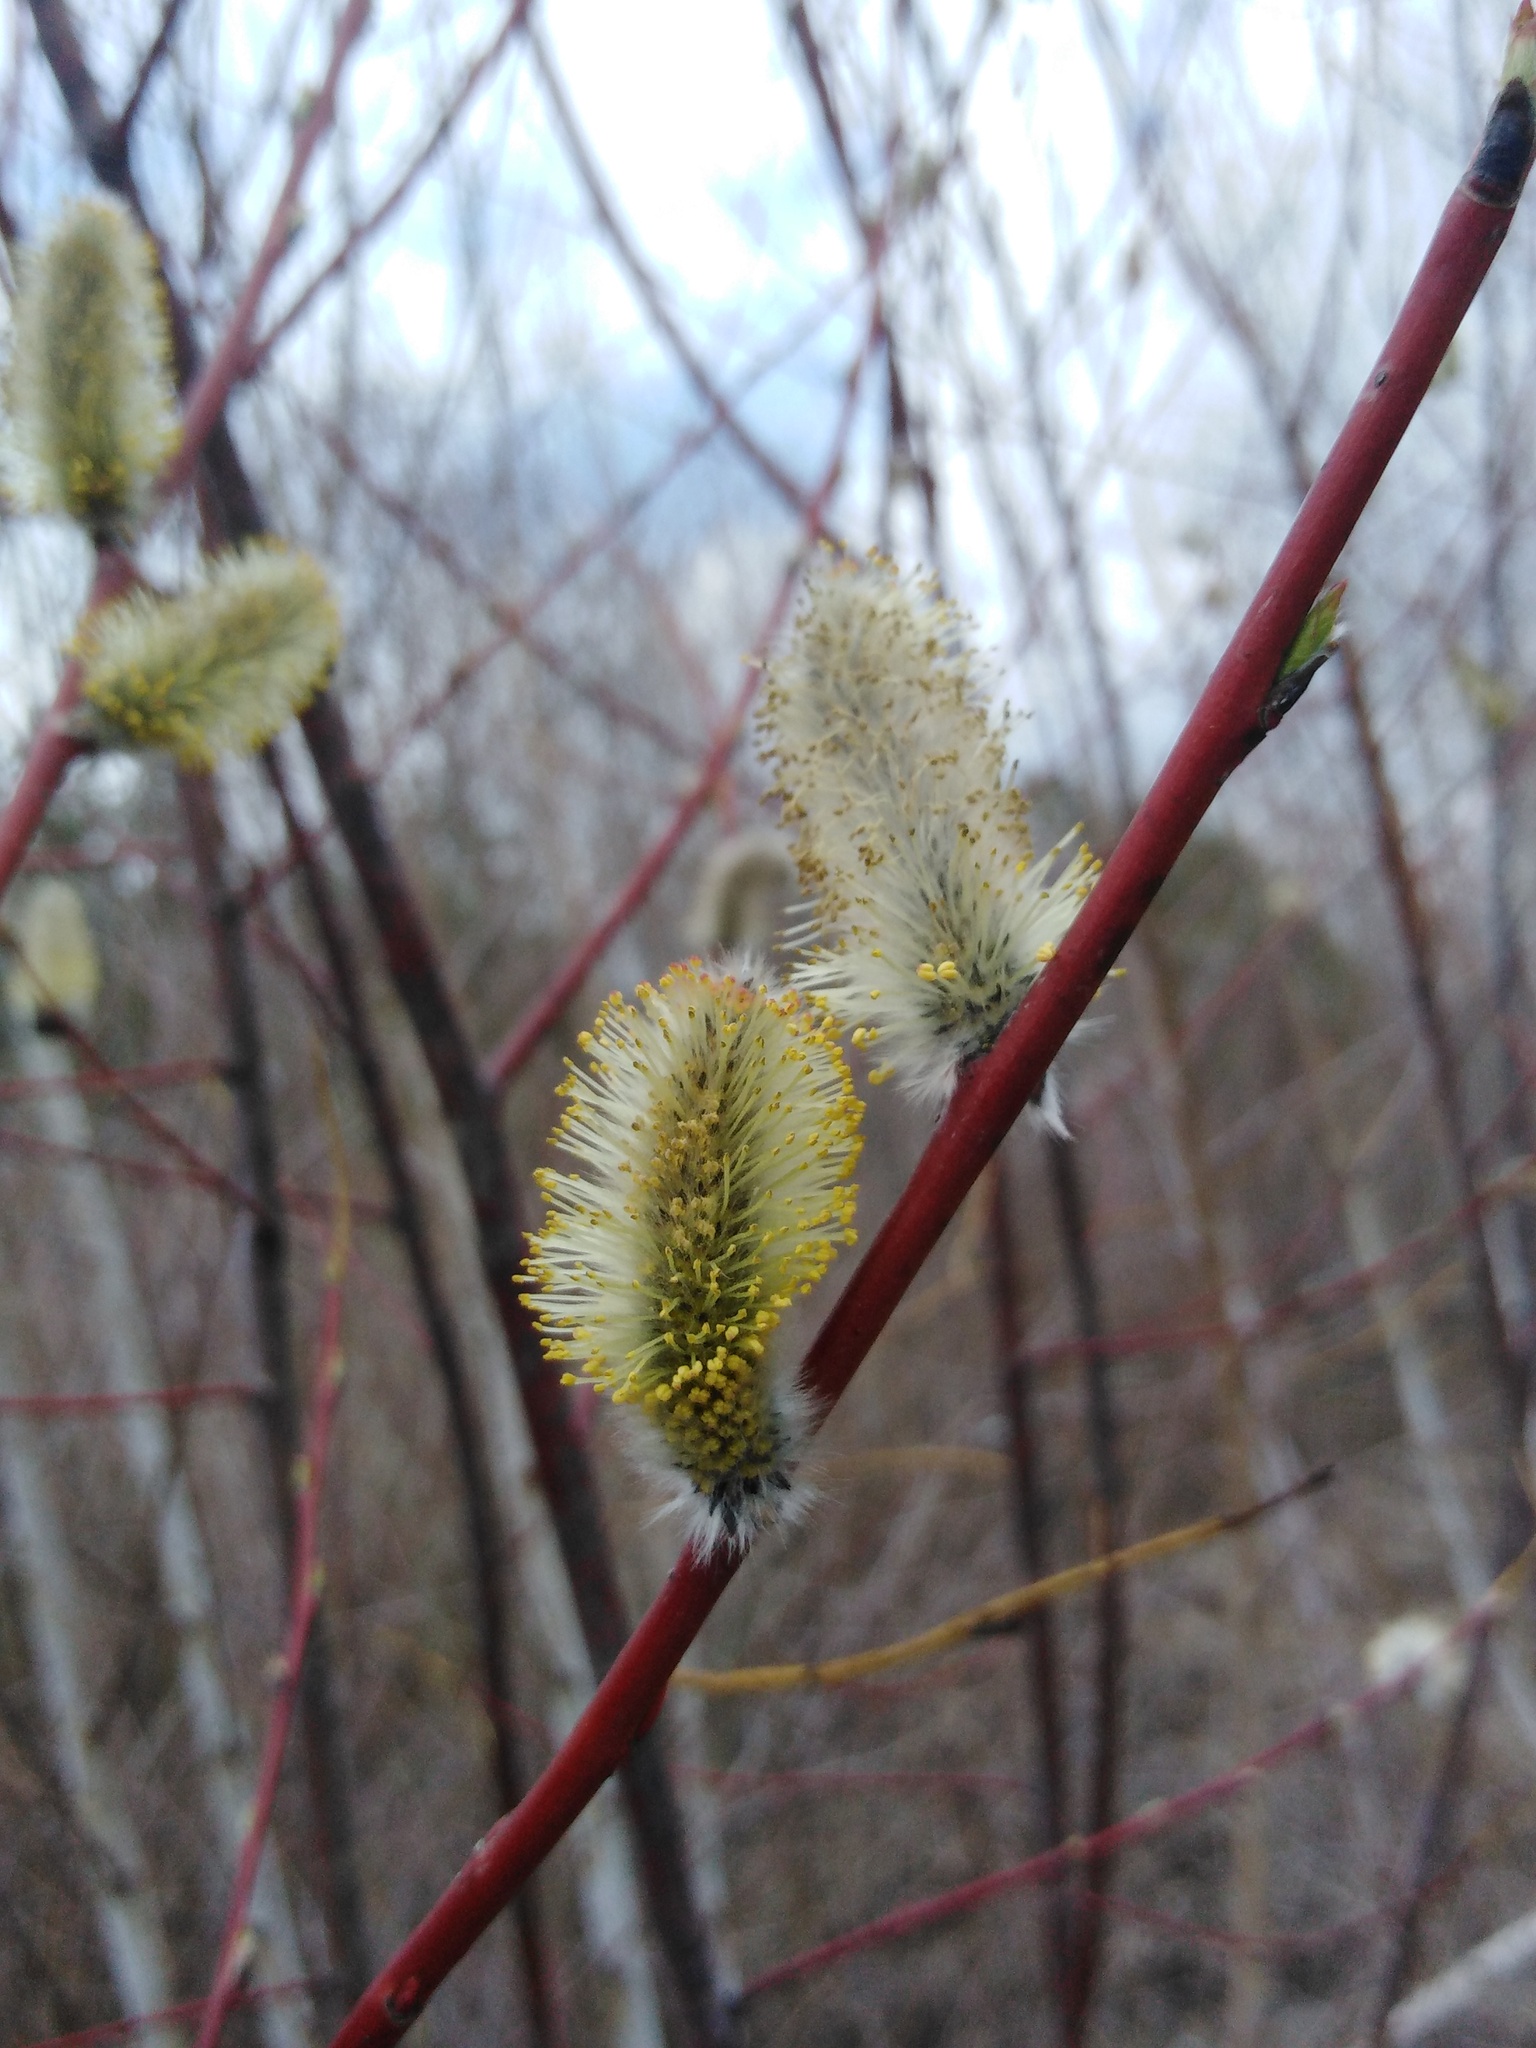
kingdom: Plantae
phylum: Tracheophyta
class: Magnoliopsida
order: Malpighiales
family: Salicaceae
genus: Salix
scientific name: Salix acutifolia
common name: Siberian violet-willow
